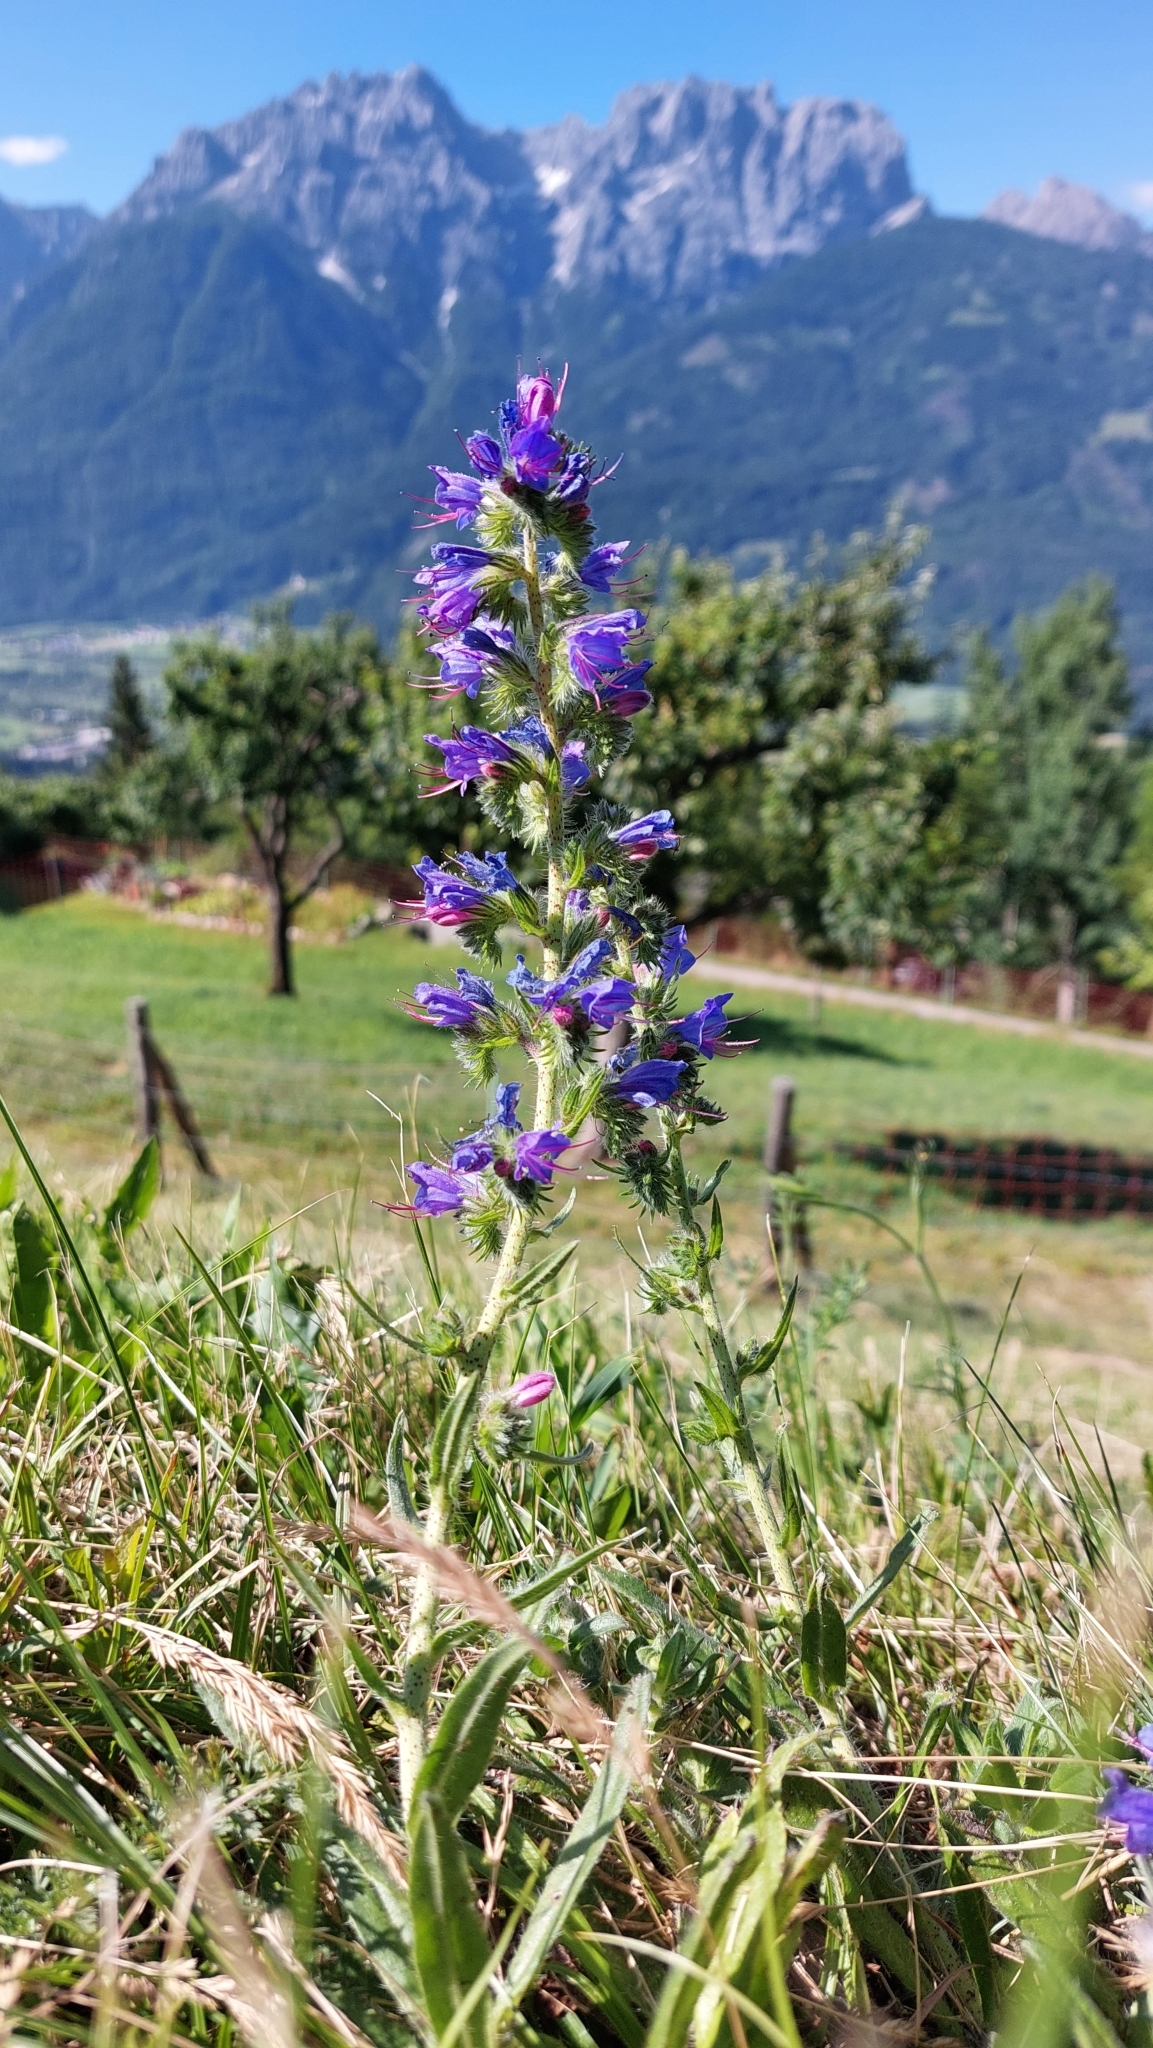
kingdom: Plantae
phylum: Tracheophyta
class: Magnoliopsida
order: Boraginales
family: Boraginaceae
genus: Echium
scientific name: Echium vulgare
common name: Common viper's bugloss
